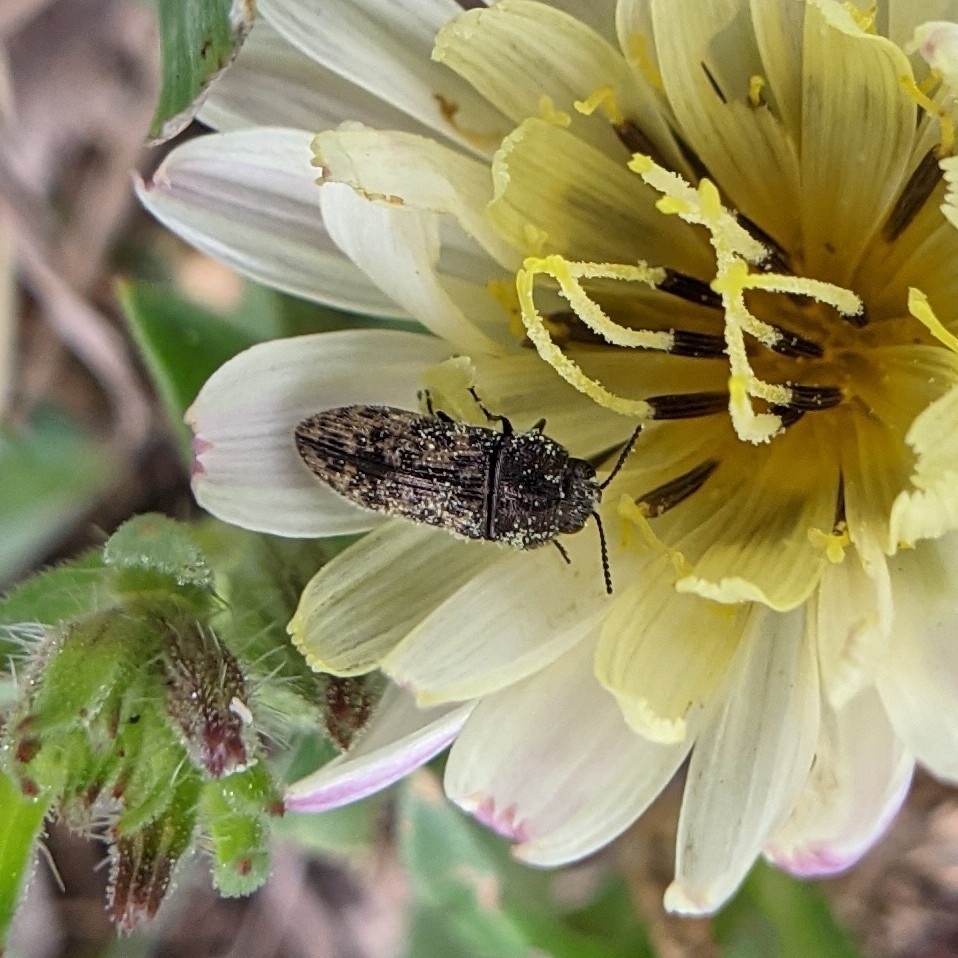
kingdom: Animalia
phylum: Arthropoda
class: Insecta
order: Coleoptera
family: Buprestidae
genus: Acmaeodera
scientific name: Acmaeodera neglecta
